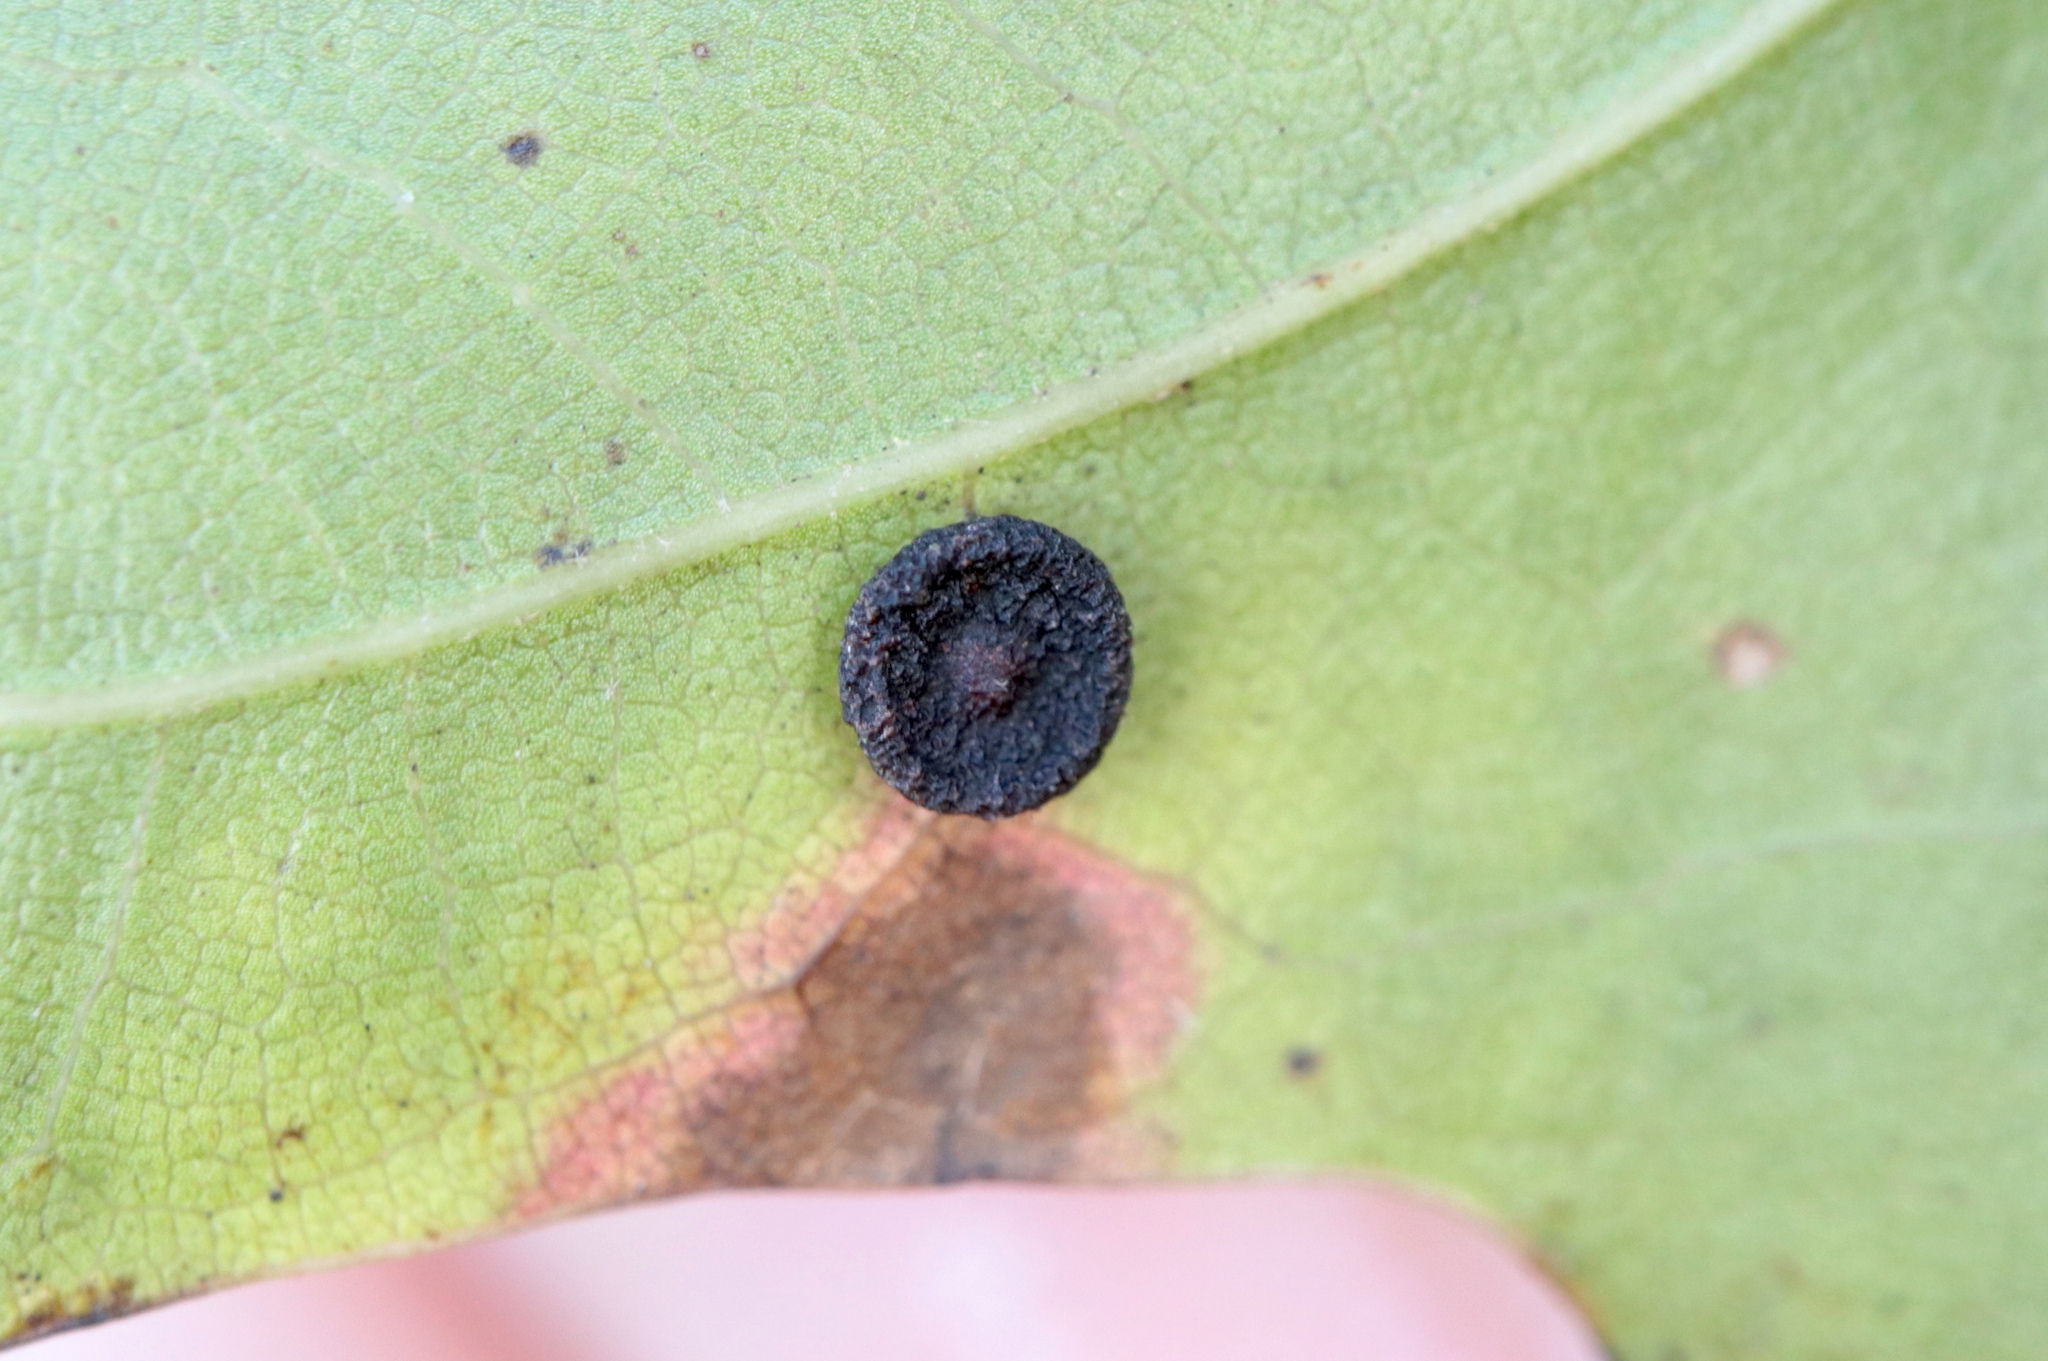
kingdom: Animalia
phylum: Arthropoda
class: Insecta
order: Hymenoptera
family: Cynipidae
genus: Dryocosmus
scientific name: Dryocosmus
